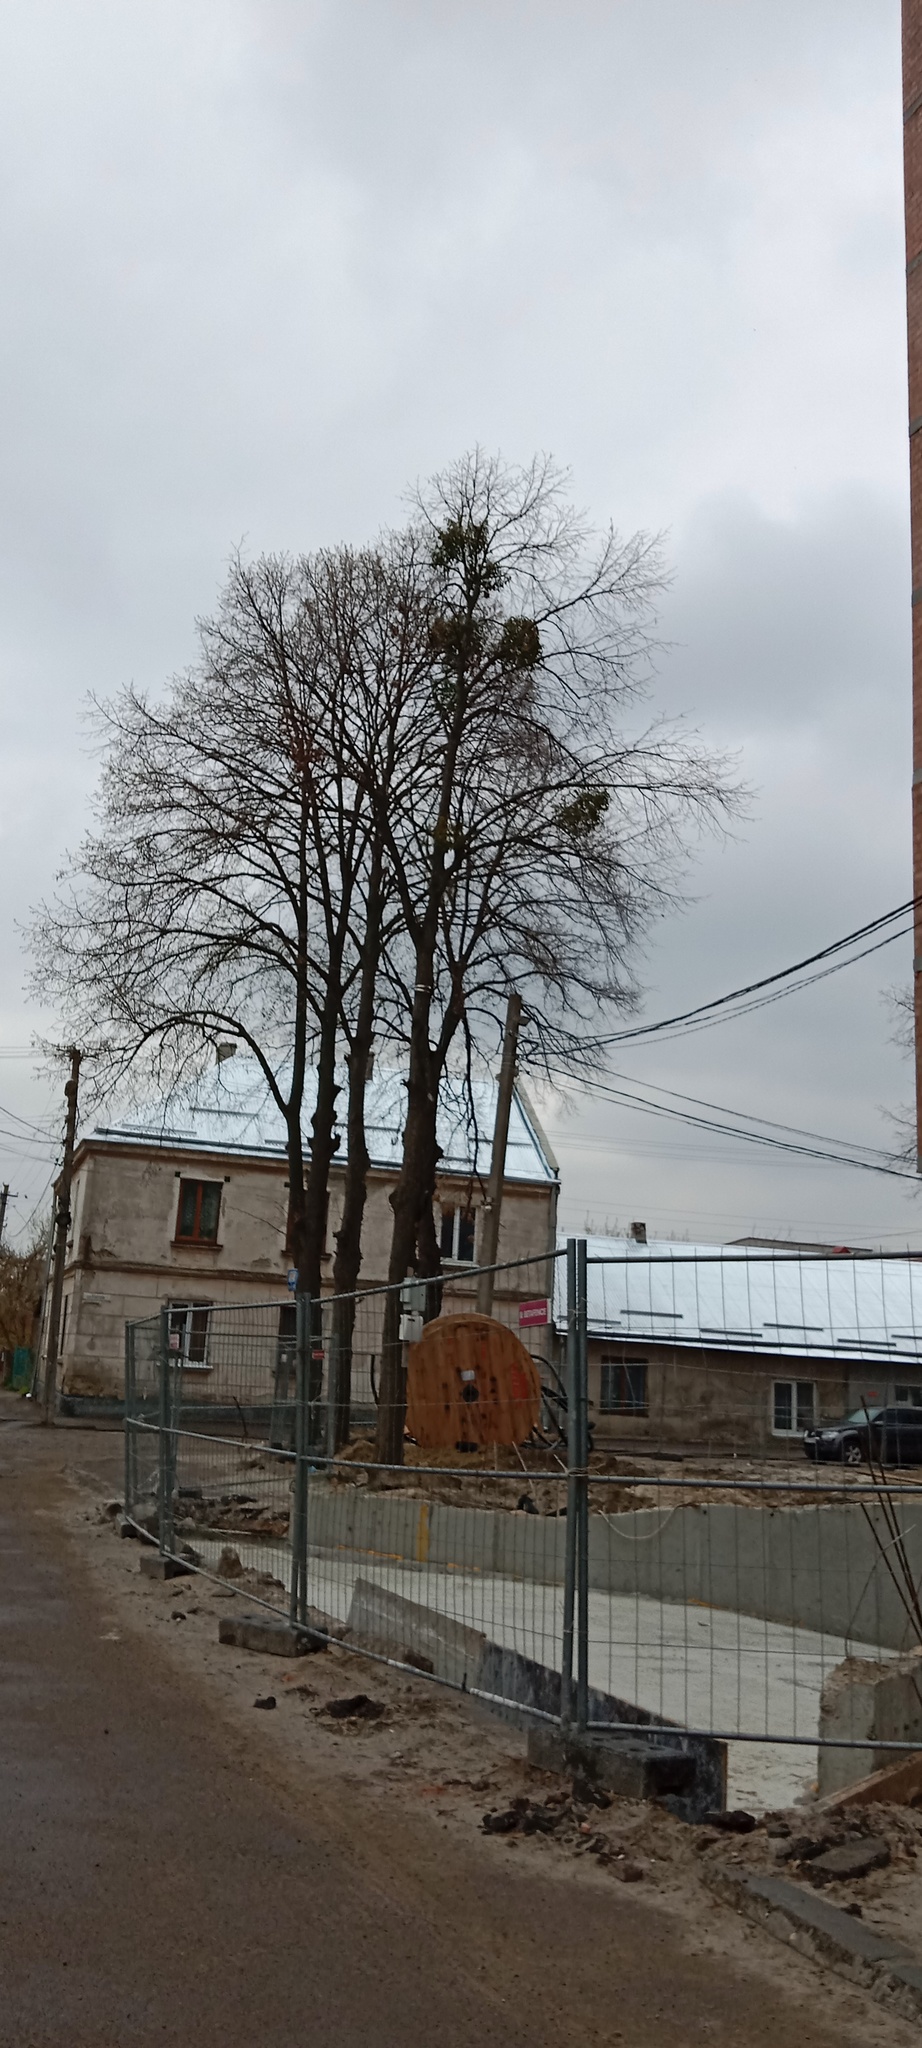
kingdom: Plantae
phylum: Tracheophyta
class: Magnoliopsida
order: Santalales
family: Viscaceae
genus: Viscum
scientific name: Viscum album
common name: Mistletoe
